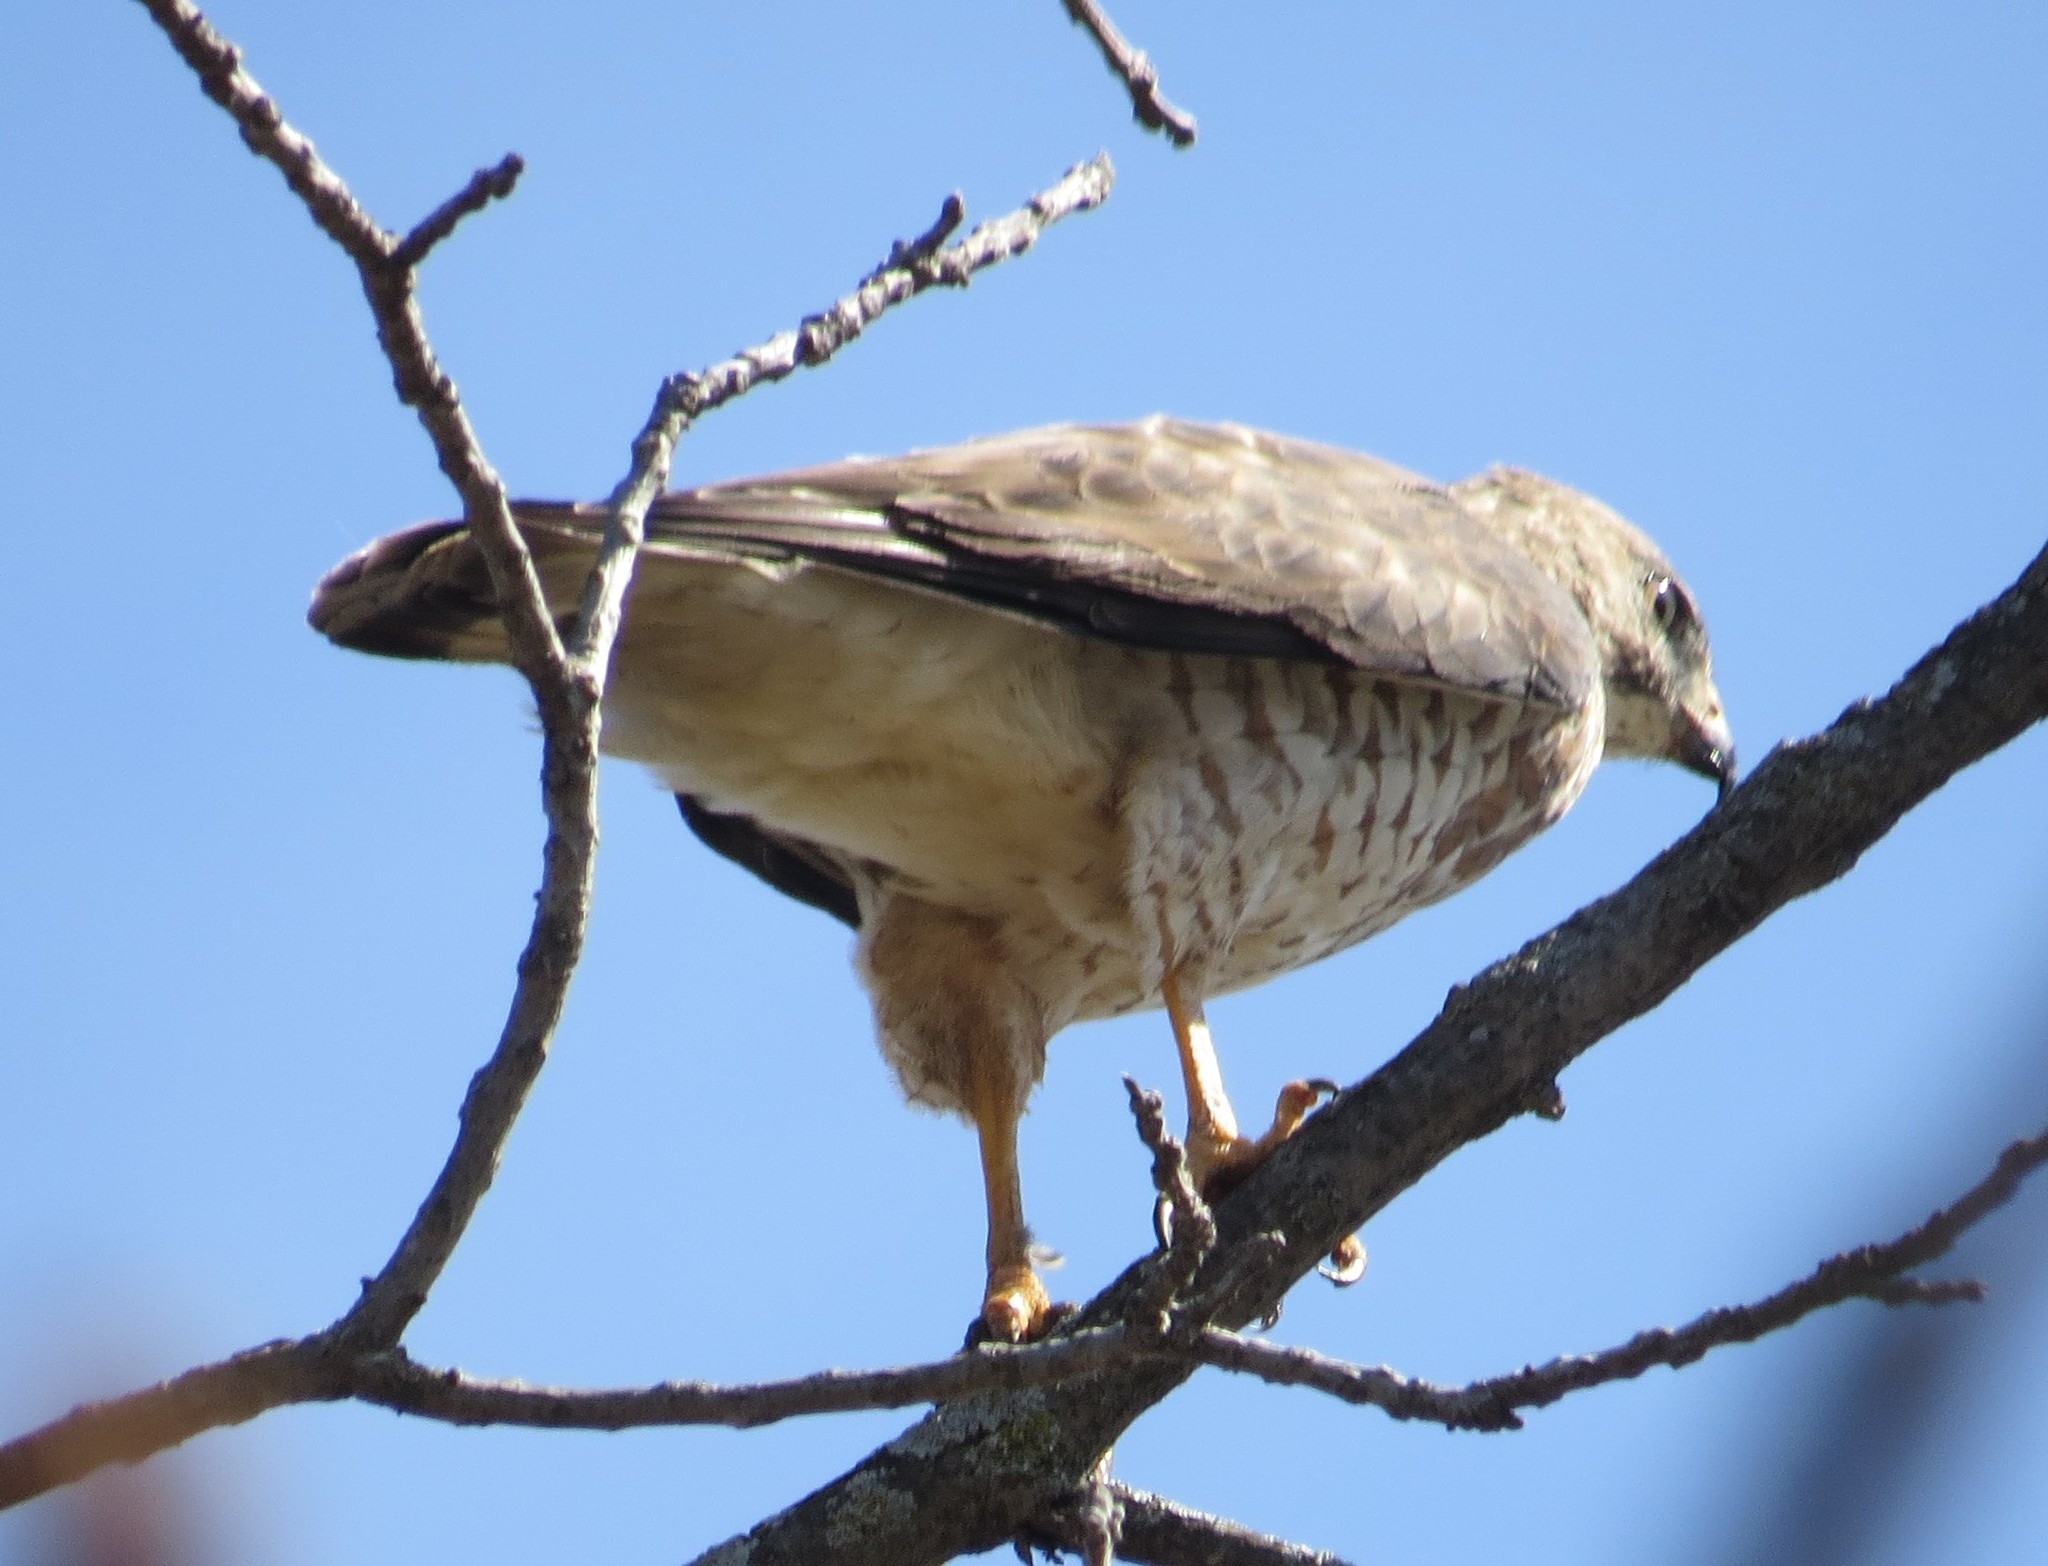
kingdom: Animalia
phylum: Chordata
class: Aves
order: Accipitriformes
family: Accipitridae
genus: Buteo
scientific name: Buteo platypterus
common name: Broad-winged hawk
